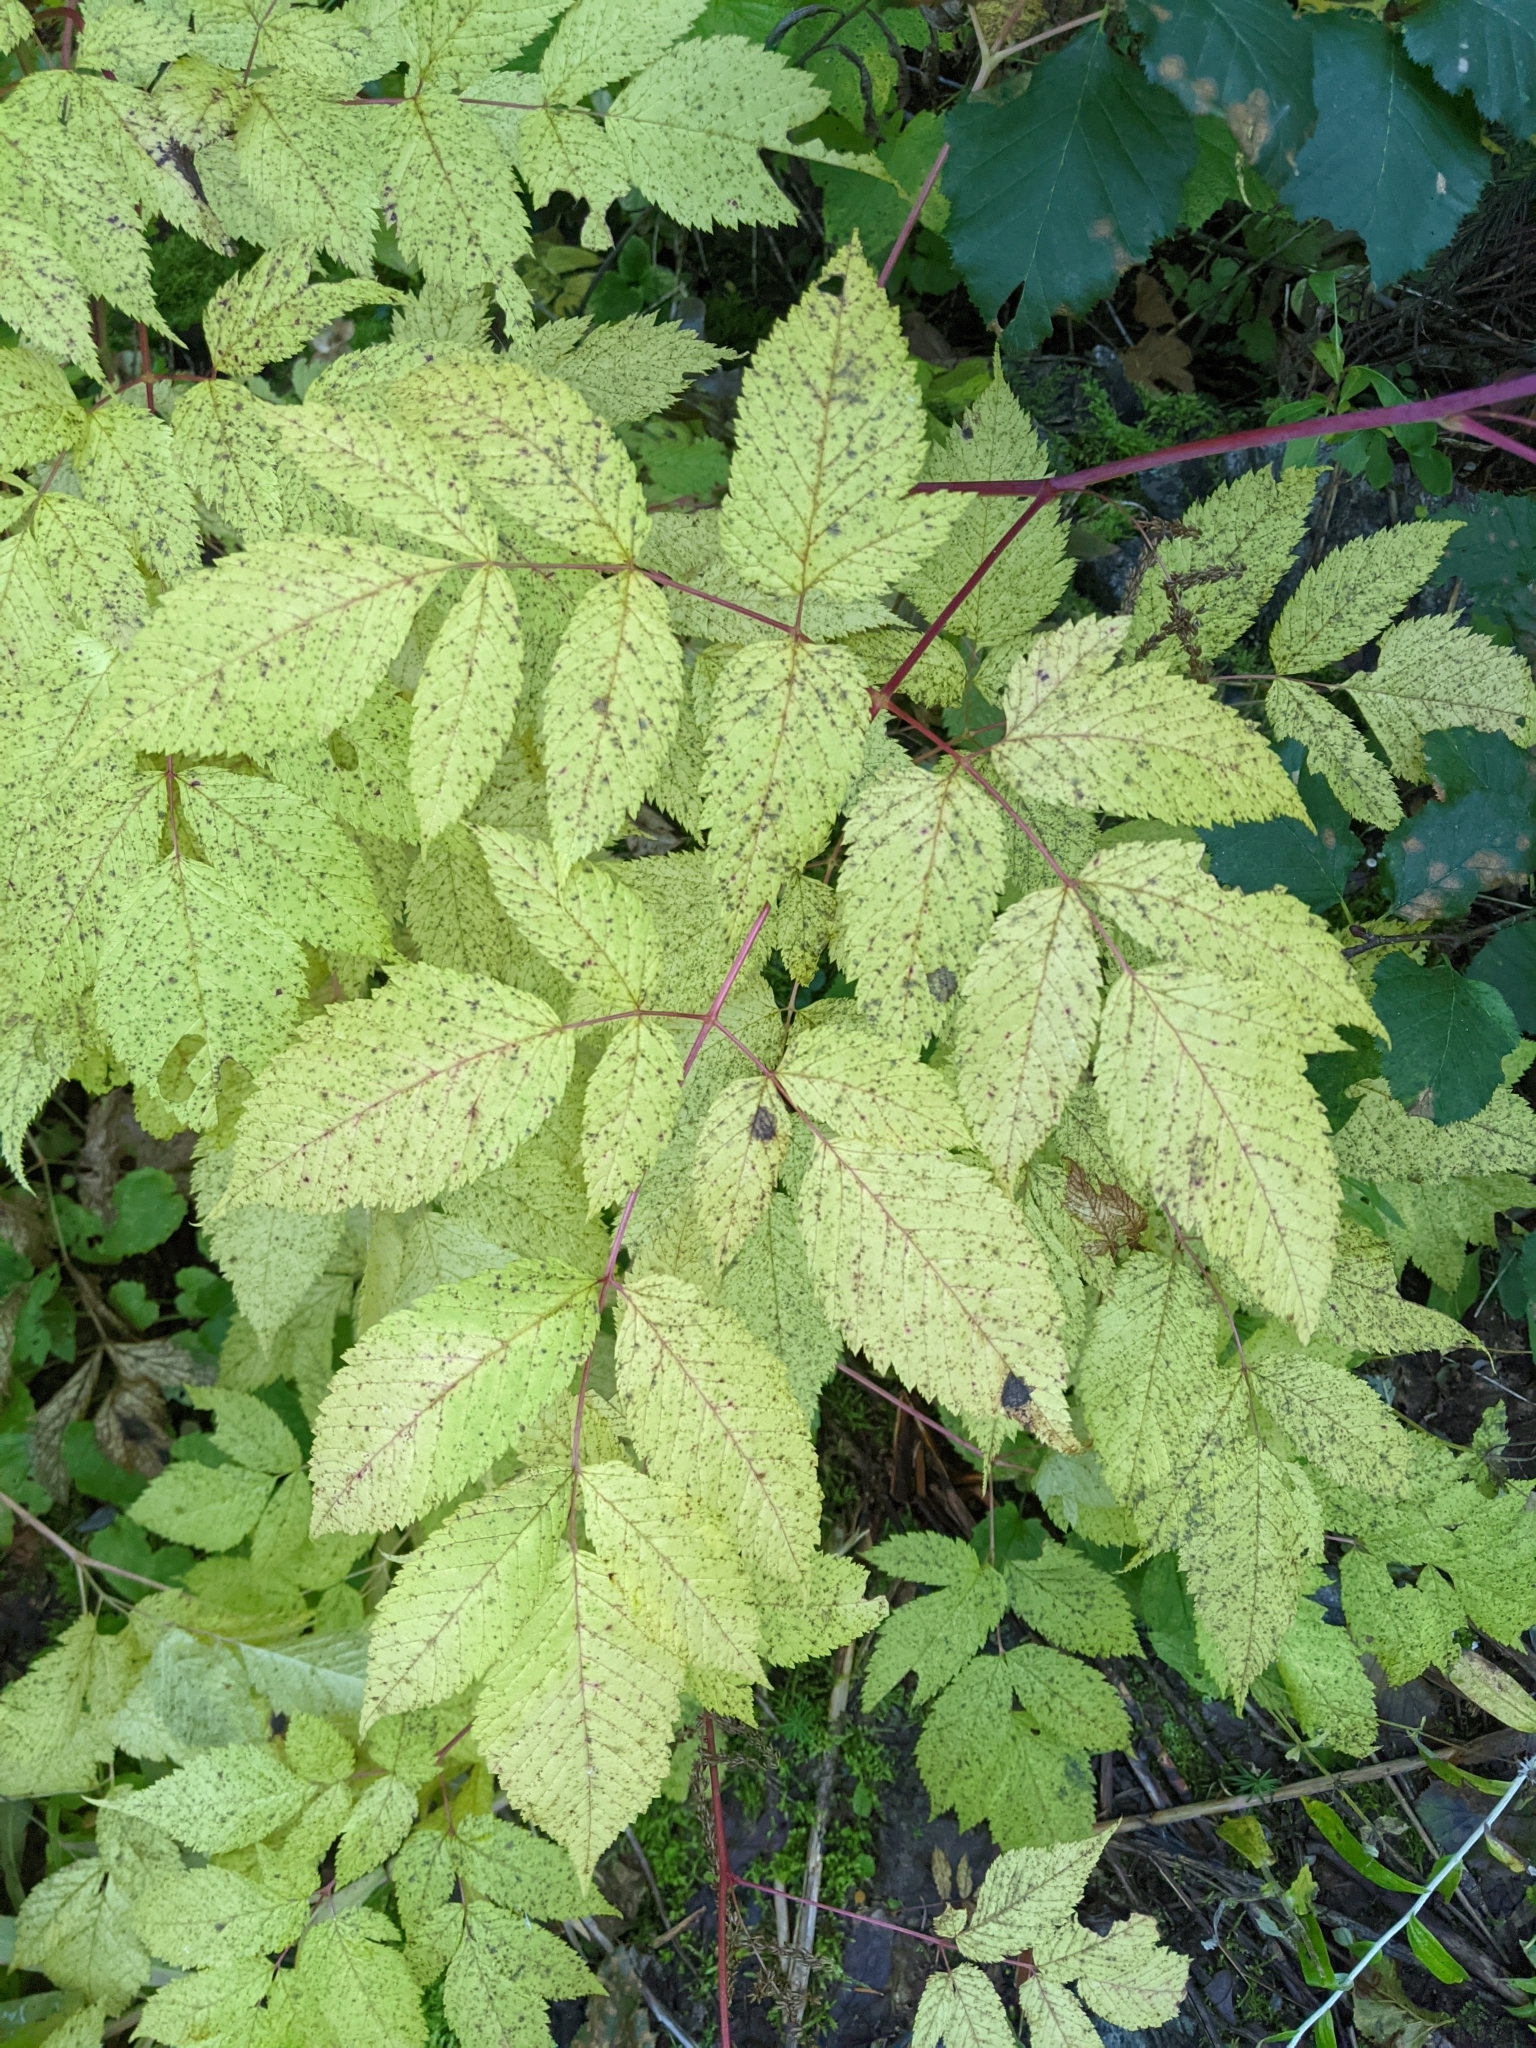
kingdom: Plantae
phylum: Tracheophyta
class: Magnoliopsida
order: Rosales
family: Rosaceae
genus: Aruncus
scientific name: Aruncus dioicus
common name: Buck's-beard
